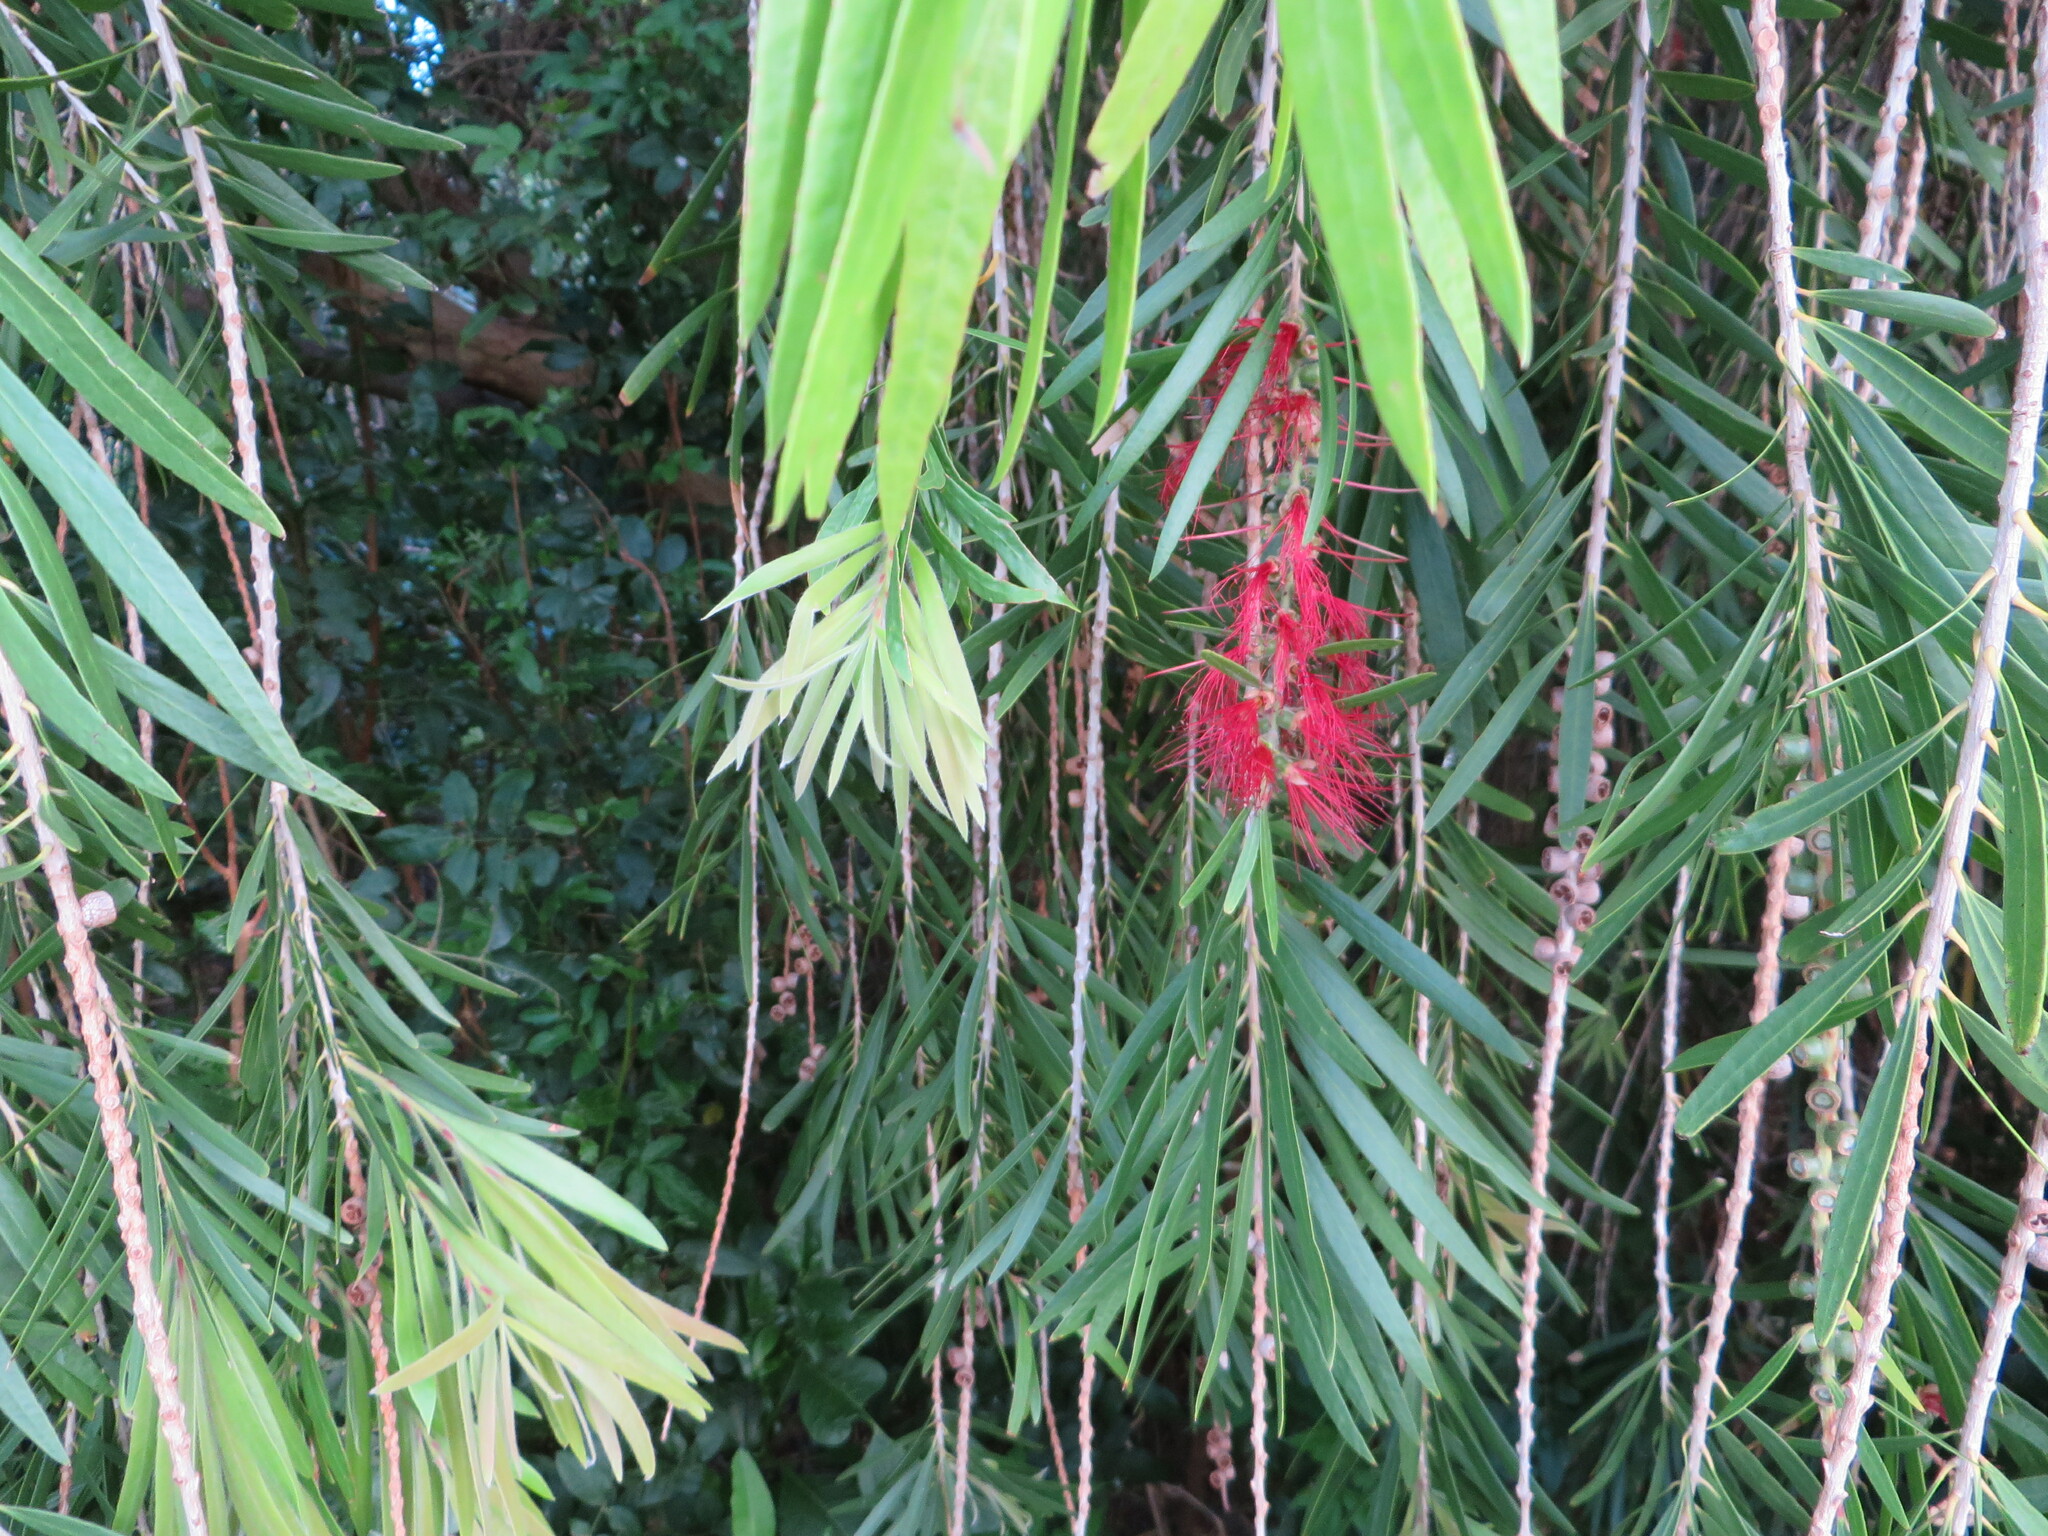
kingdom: Plantae
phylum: Tracheophyta
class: Magnoliopsida
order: Myrtales
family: Myrtaceae
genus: Callistemon
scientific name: Callistemon viminalis
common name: Drooping bottlebrush
